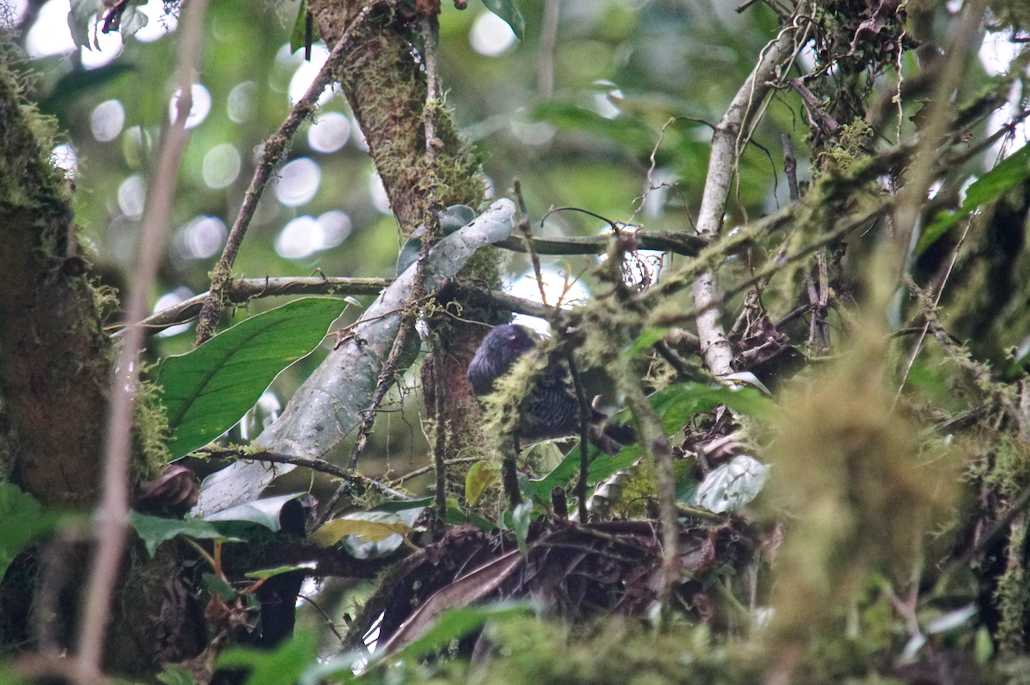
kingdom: Animalia
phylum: Chordata
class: Aves
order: Passeriformes
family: Thamnophilidae
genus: Cymbilaimus
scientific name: Cymbilaimus lineatus
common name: Fasciated antshrike
